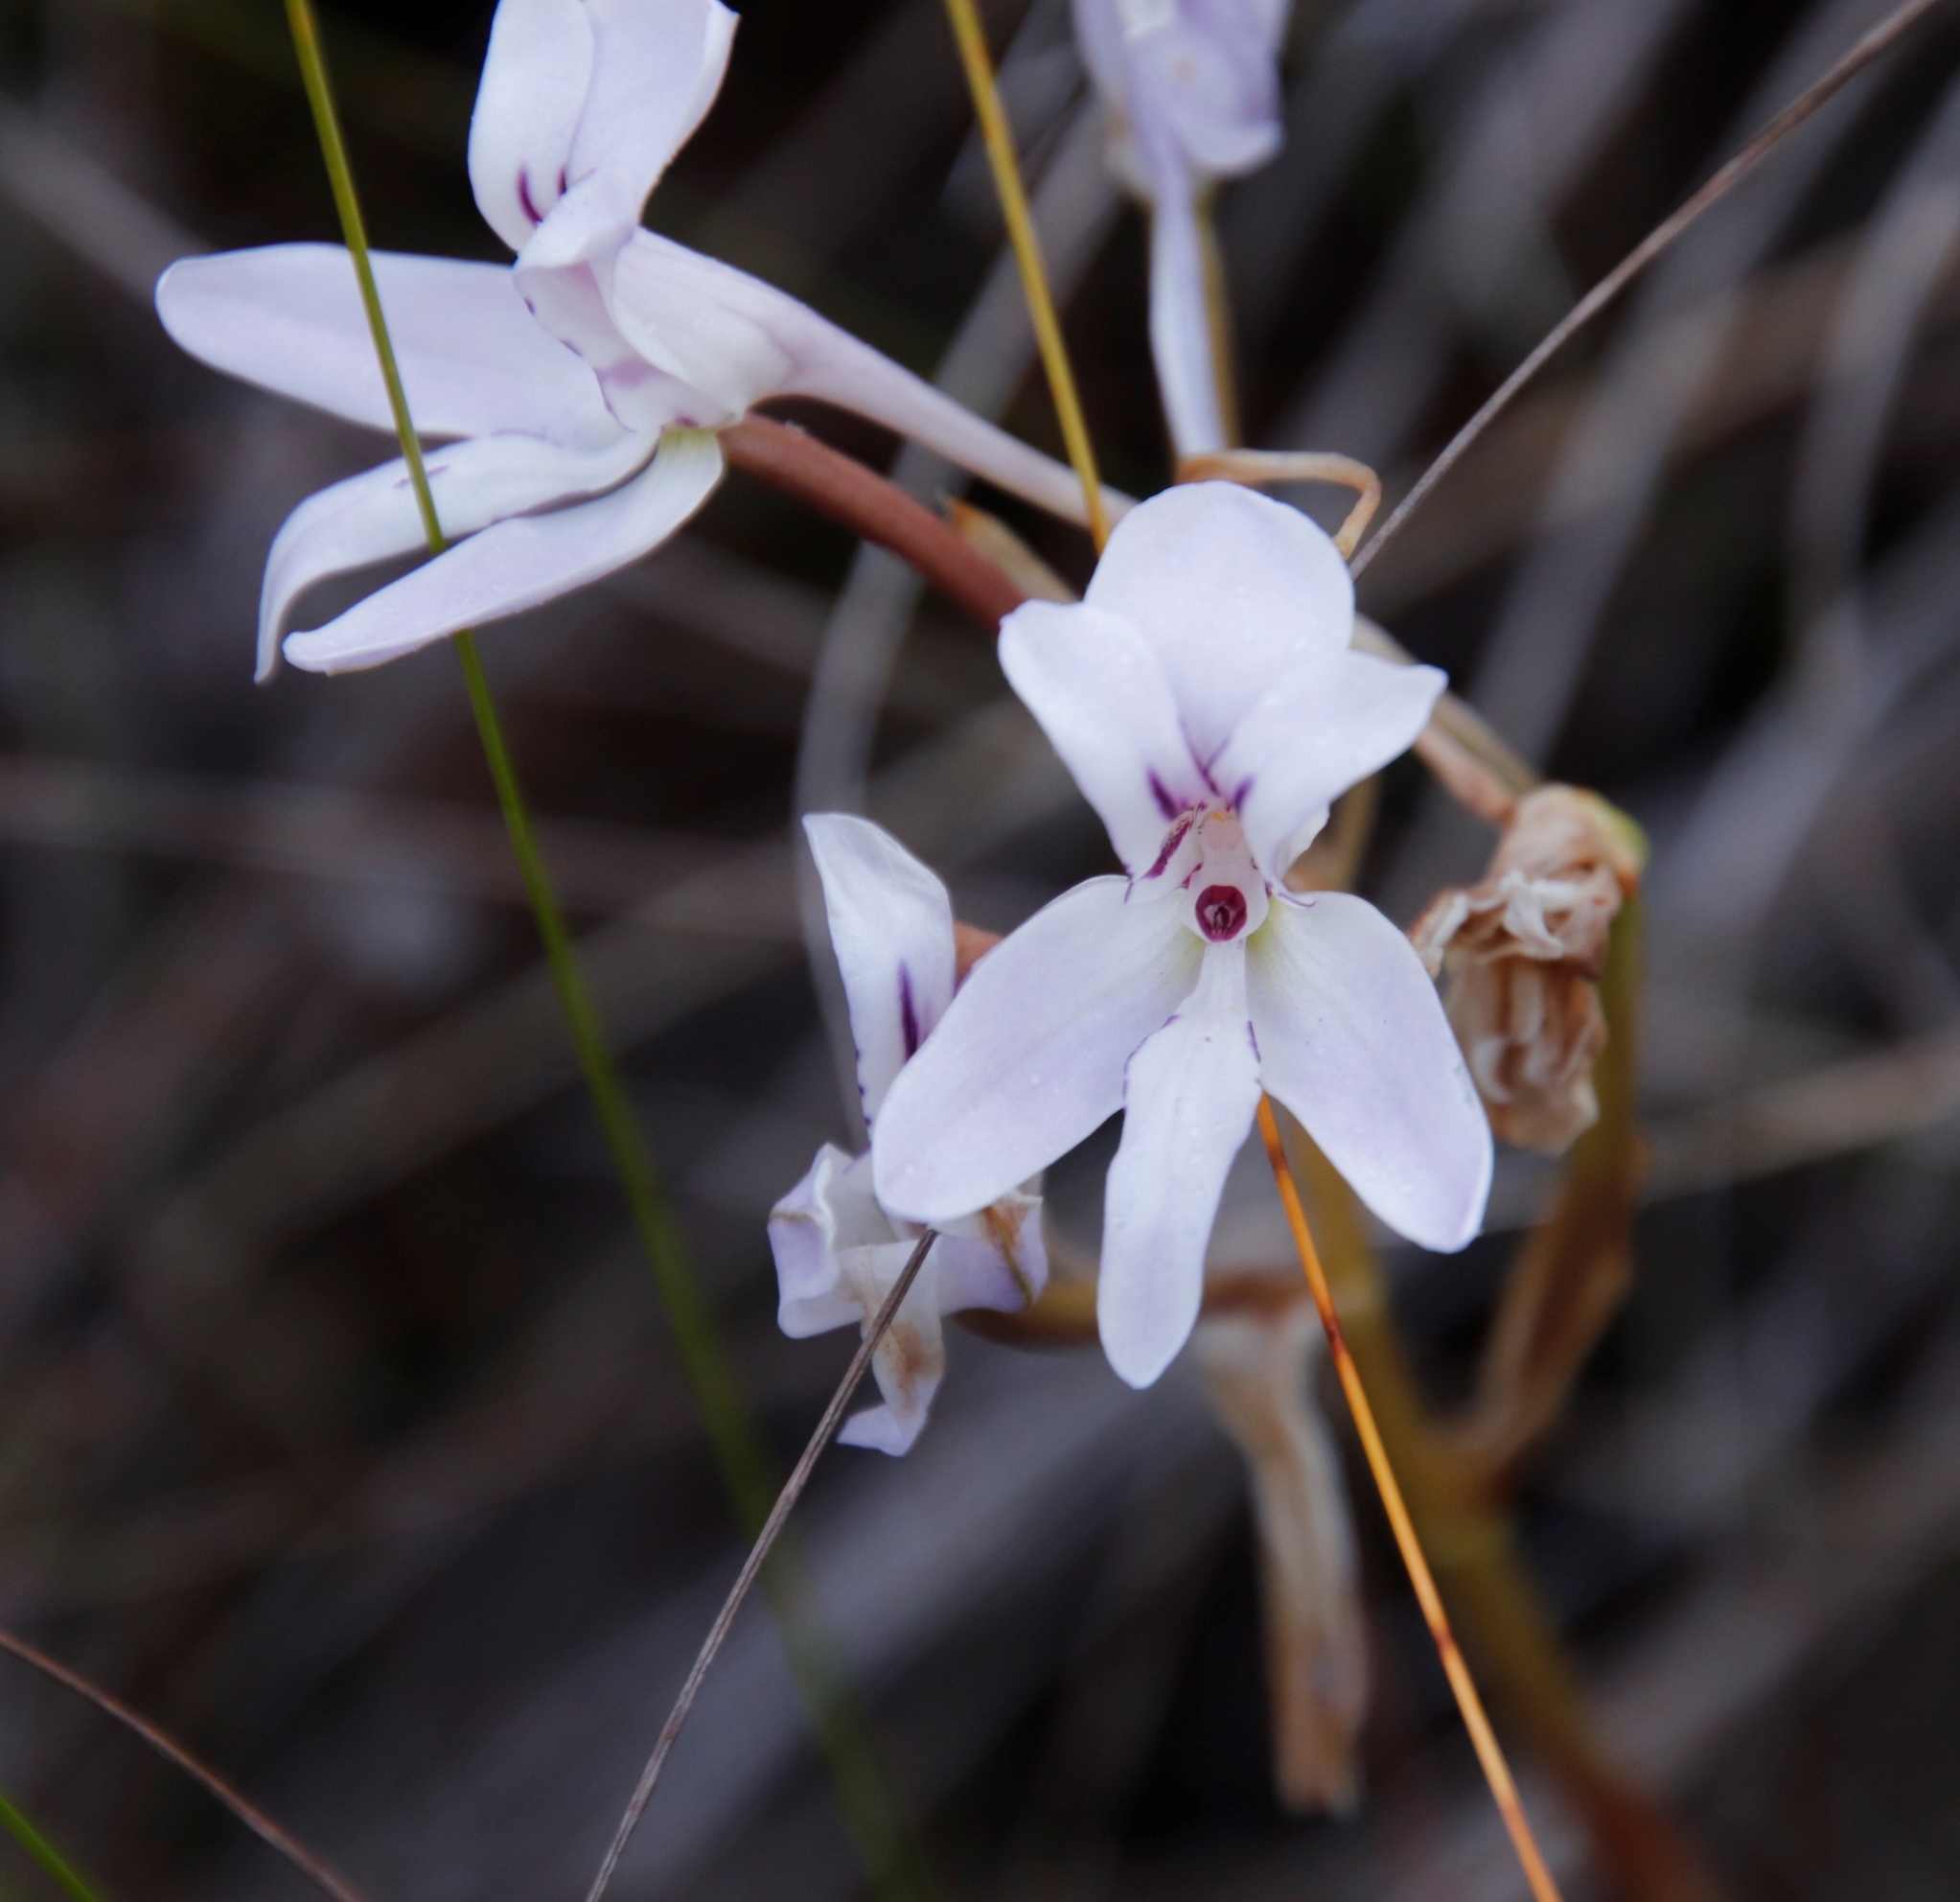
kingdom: Plantae
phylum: Tracheophyta
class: Liliopsida
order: Asparagales
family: Orchidaceae
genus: Disa
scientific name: Disa harveyana
